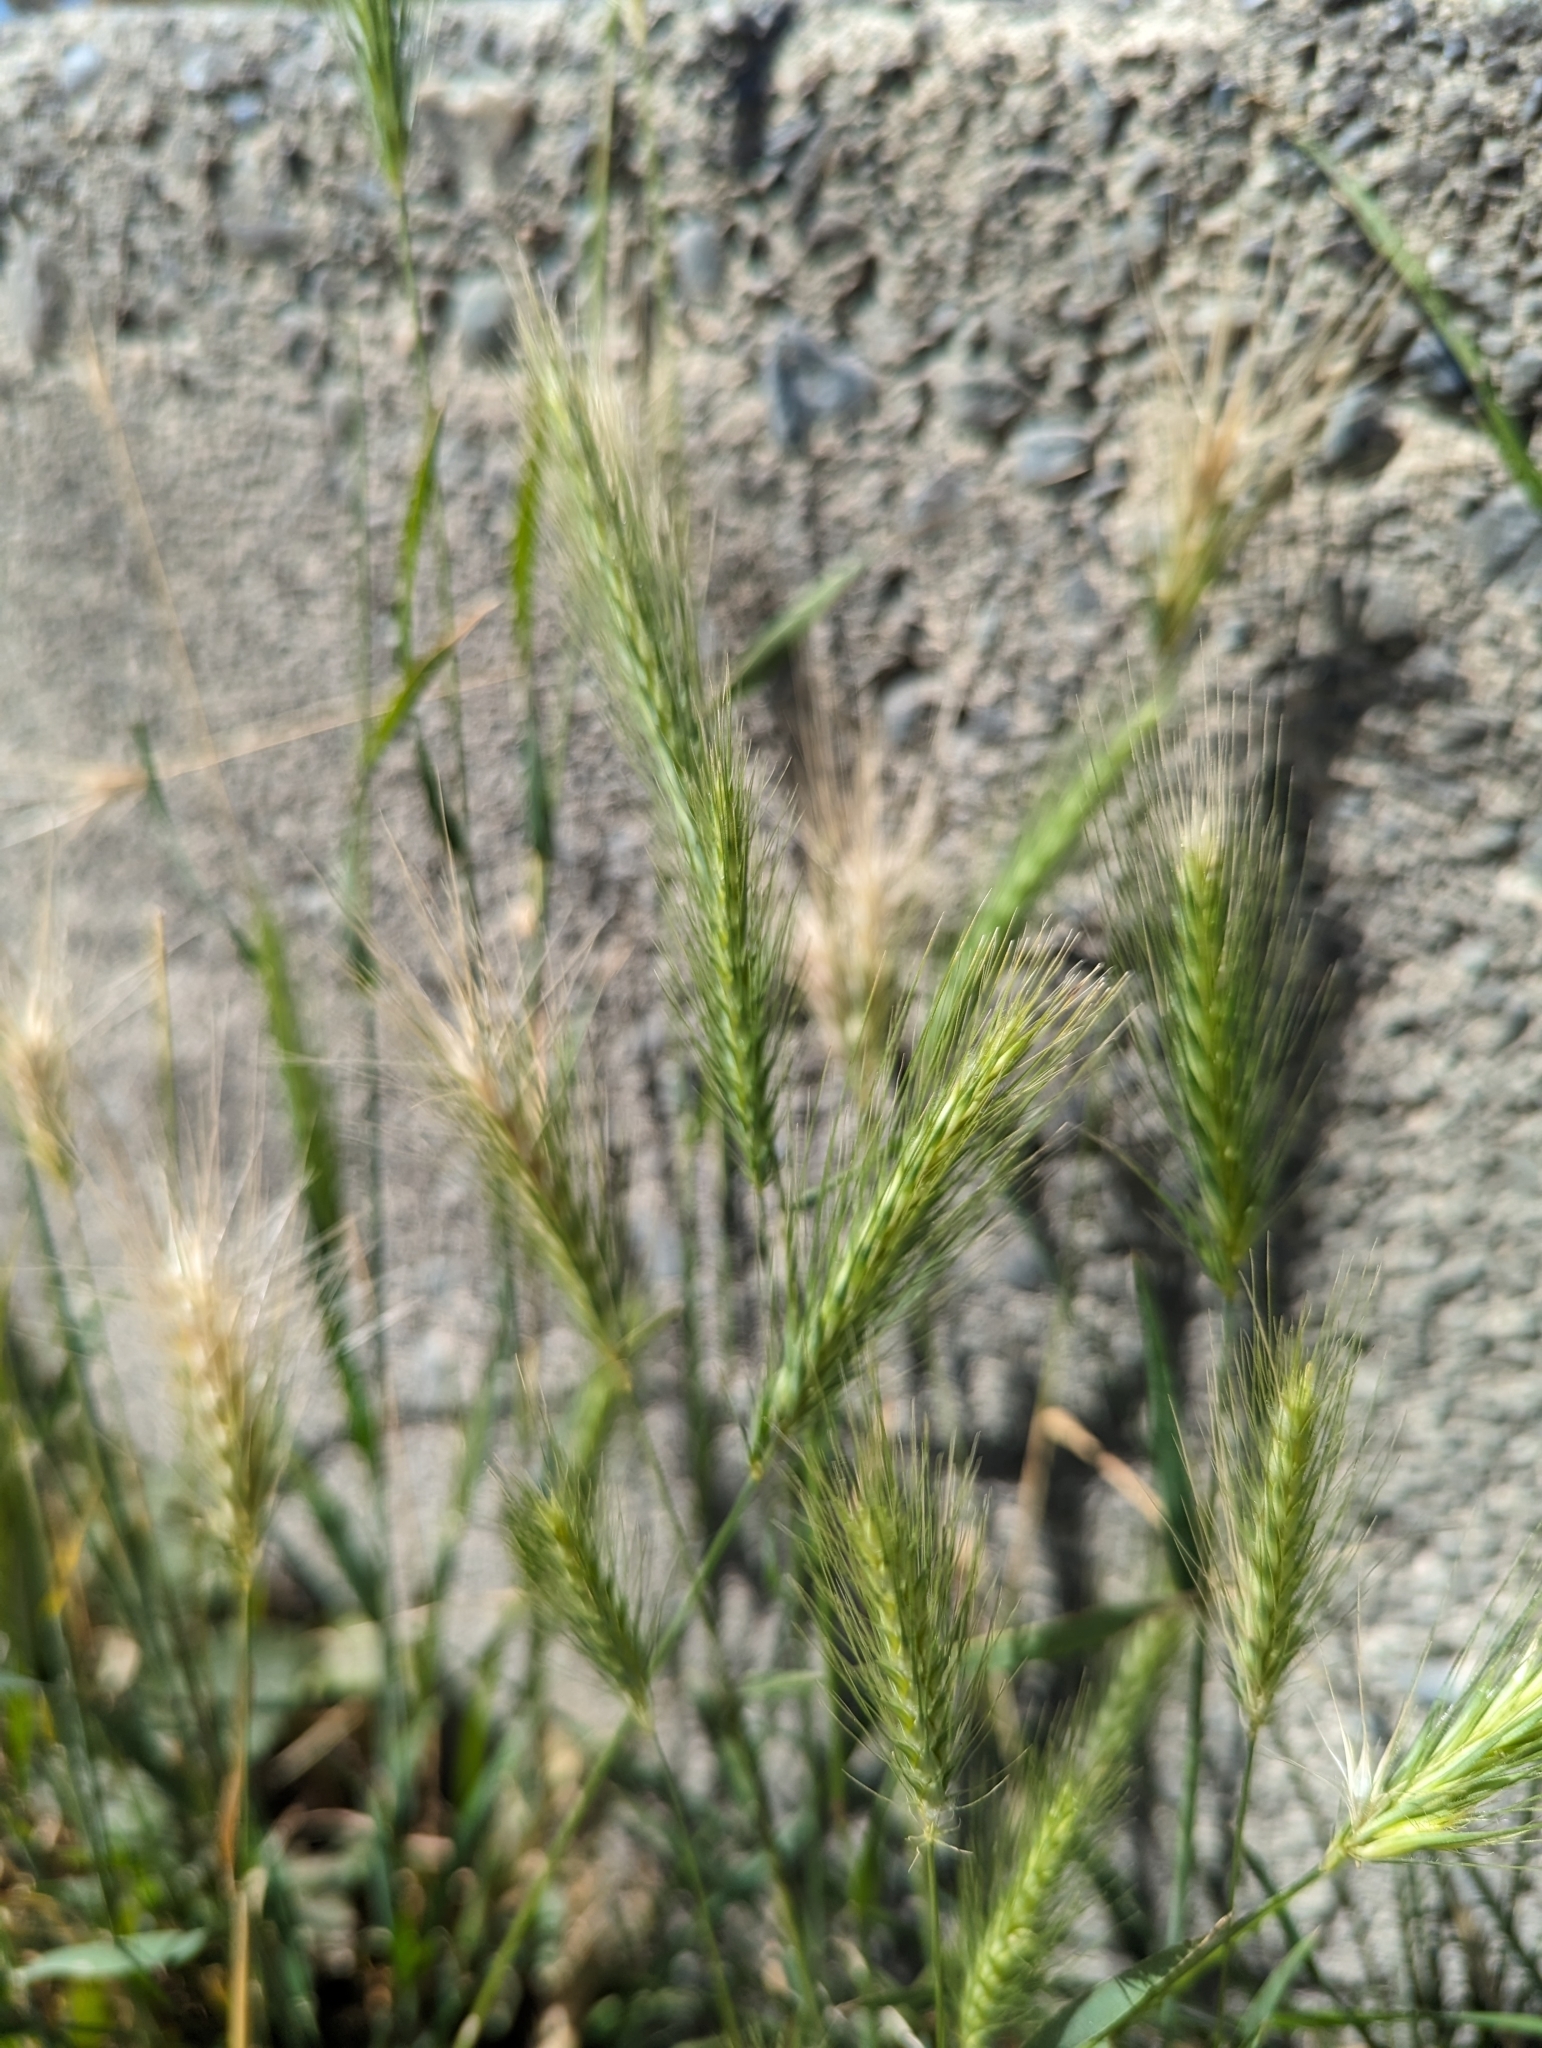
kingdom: Plantae
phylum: Tracheophyta
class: Liliopsida
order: Poales
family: Poaceae
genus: Hordeum
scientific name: Hordeum murinum
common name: Wall barley
